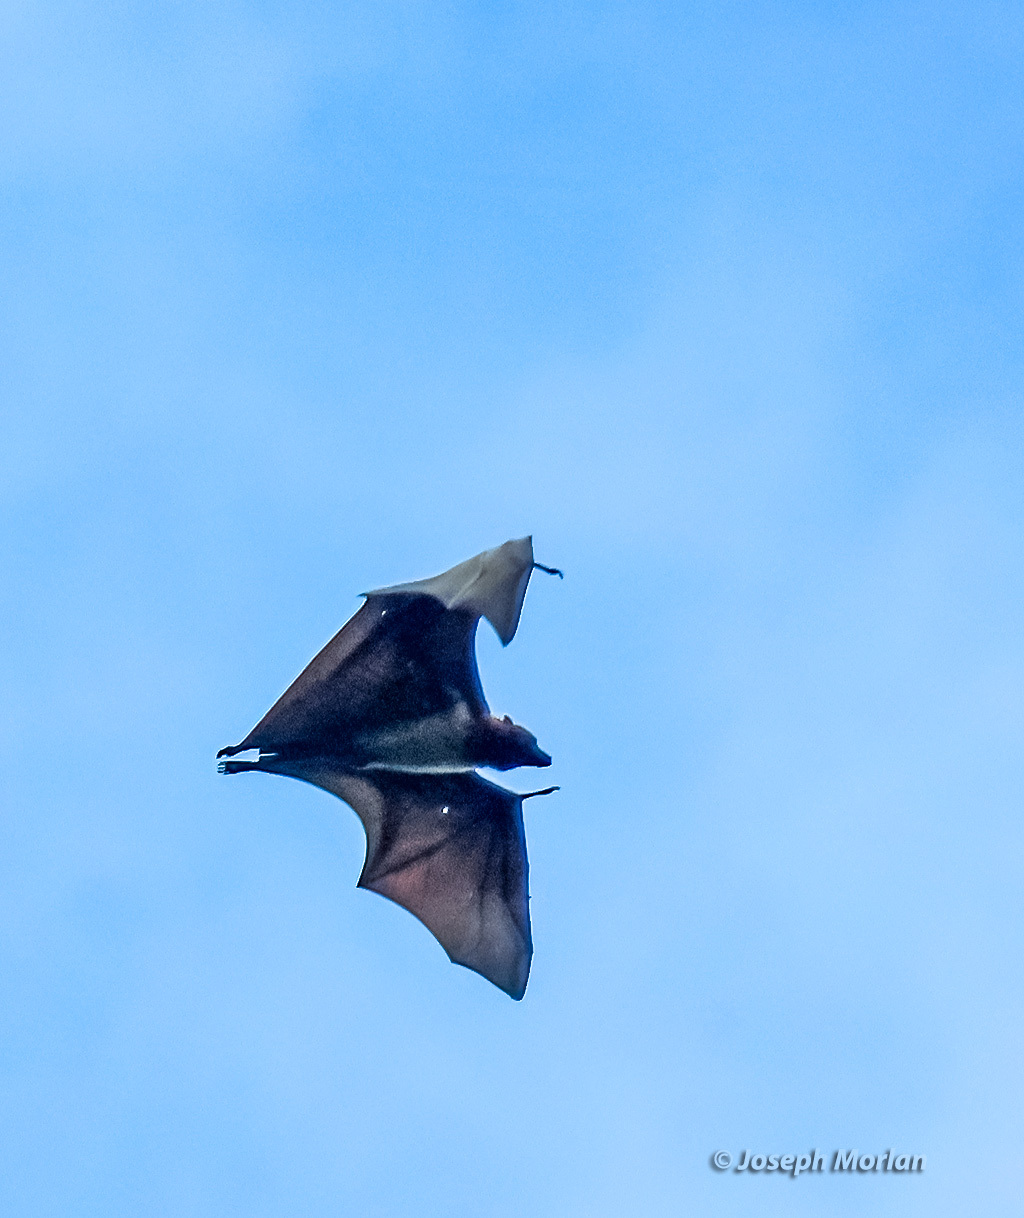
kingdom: Animalia
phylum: Chordata
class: Mammalia
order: Chiroptera
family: Pteropodidae
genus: Pteropus
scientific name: Pteropus melanopogon
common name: Black-bearded flying fox
